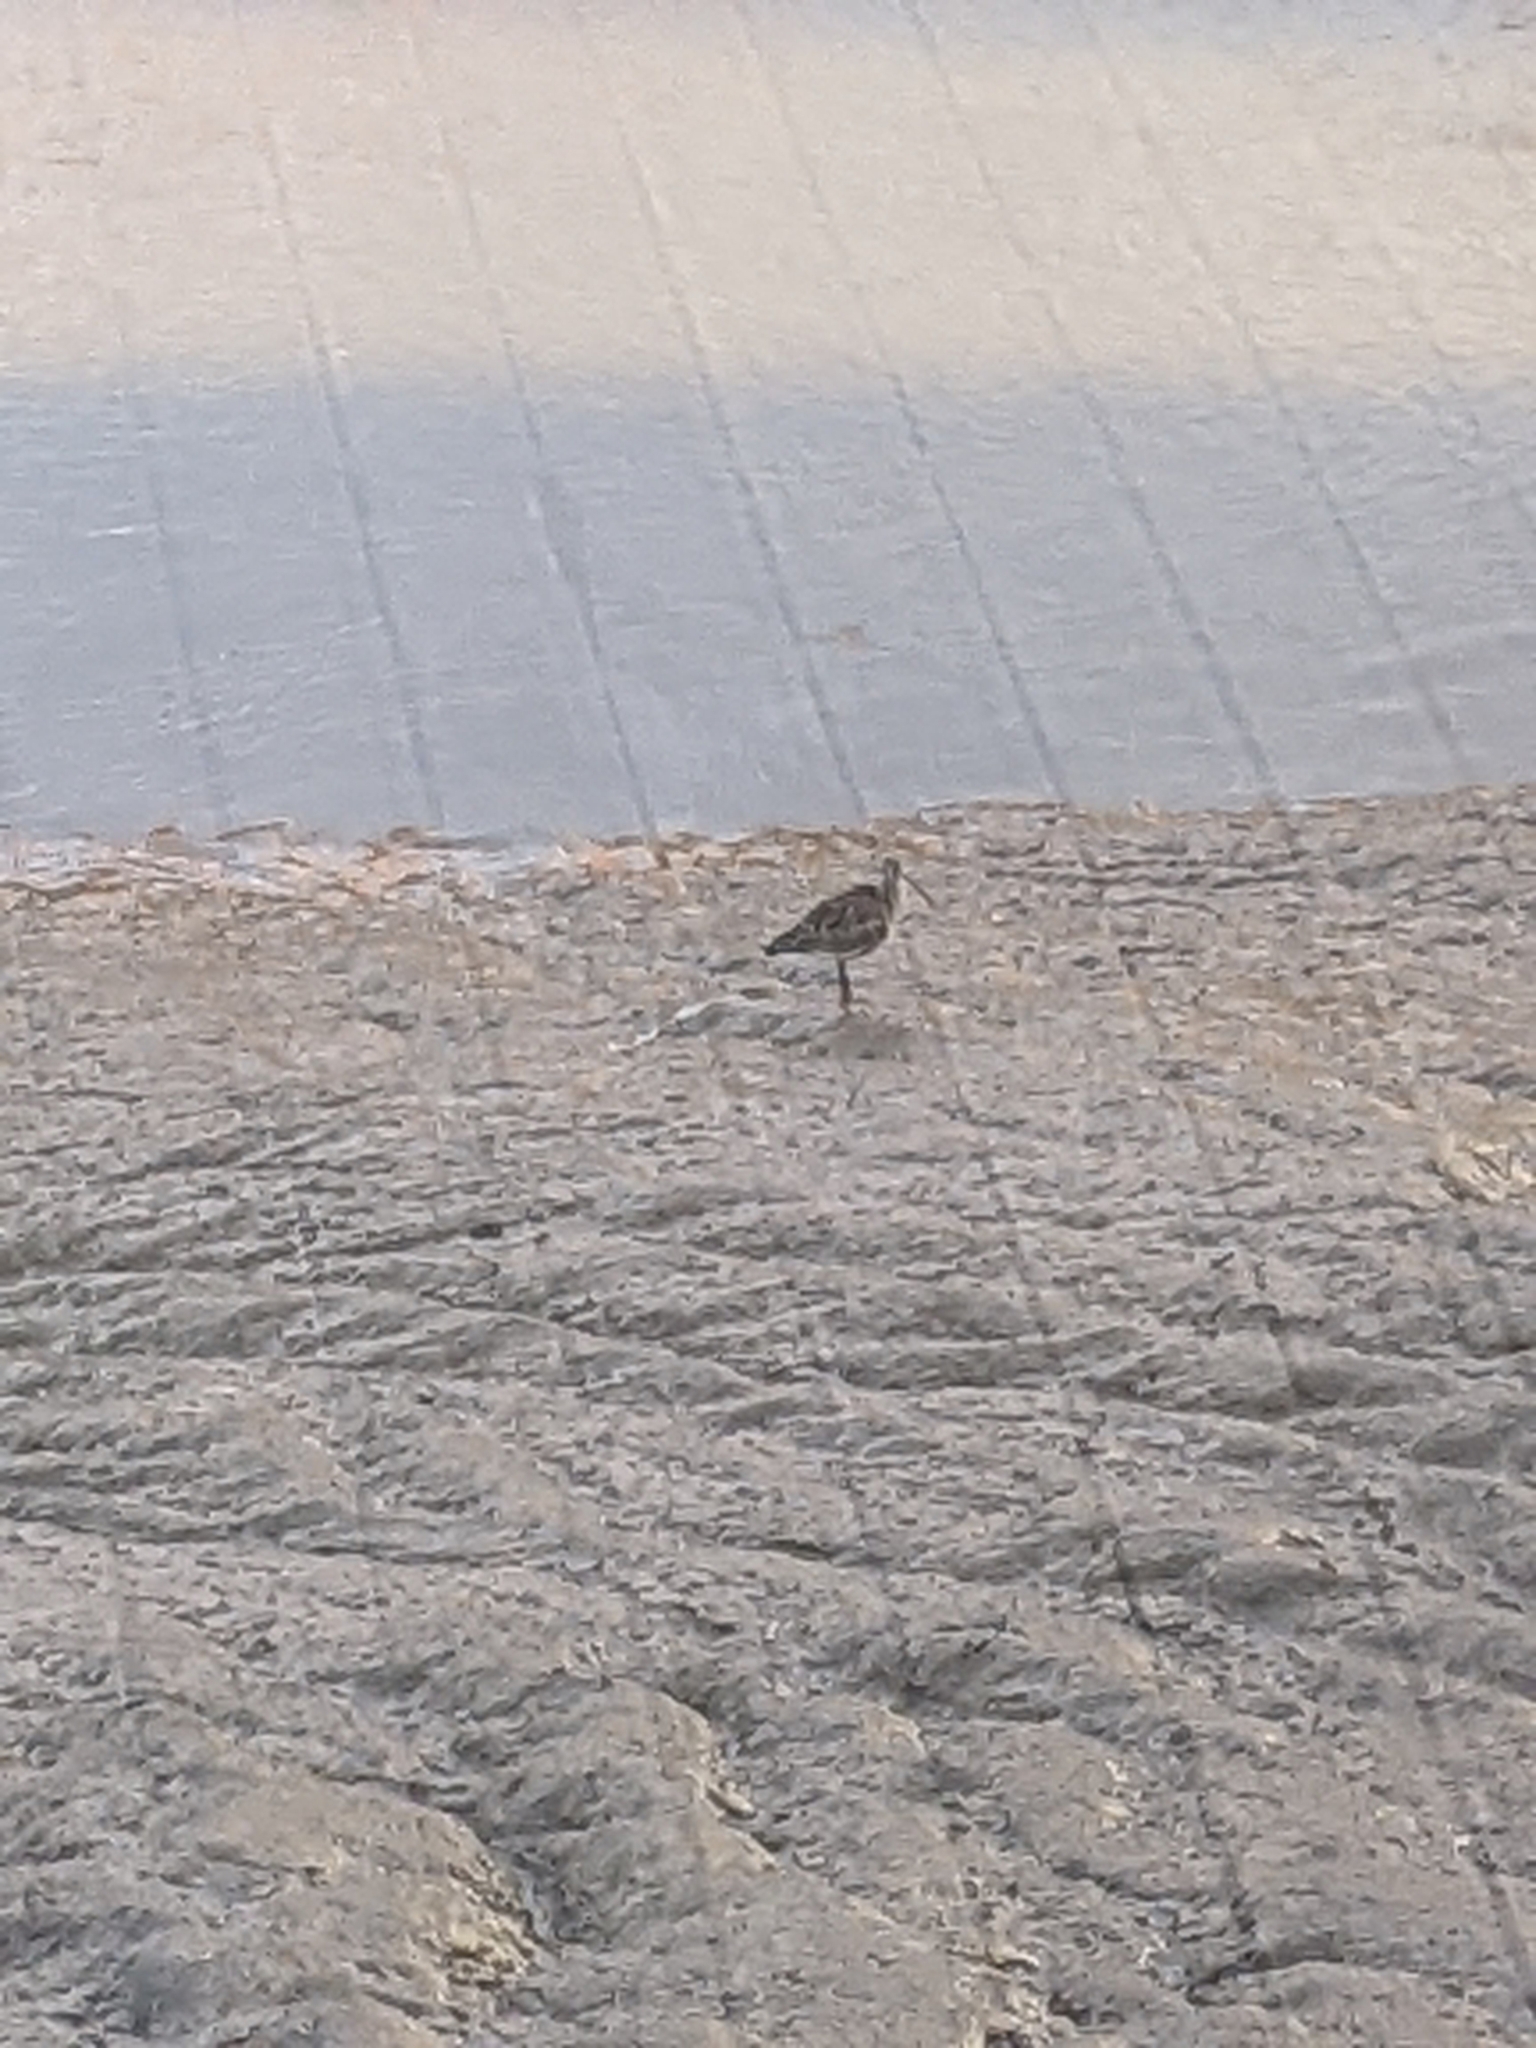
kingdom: Animalia
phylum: Chordata
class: Aves
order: Charadriiformes
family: Scolopacidae
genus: Numenius
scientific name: Numenius arquata
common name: Eurasian curlew
